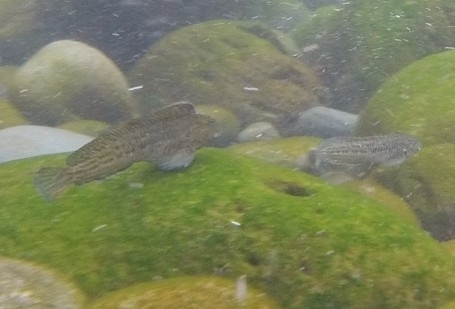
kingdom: Animalia
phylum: Chordata
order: Perciformes
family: Blenniidae
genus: Parablennius
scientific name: Parablennius parvicornis
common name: Rock-pool blenny
